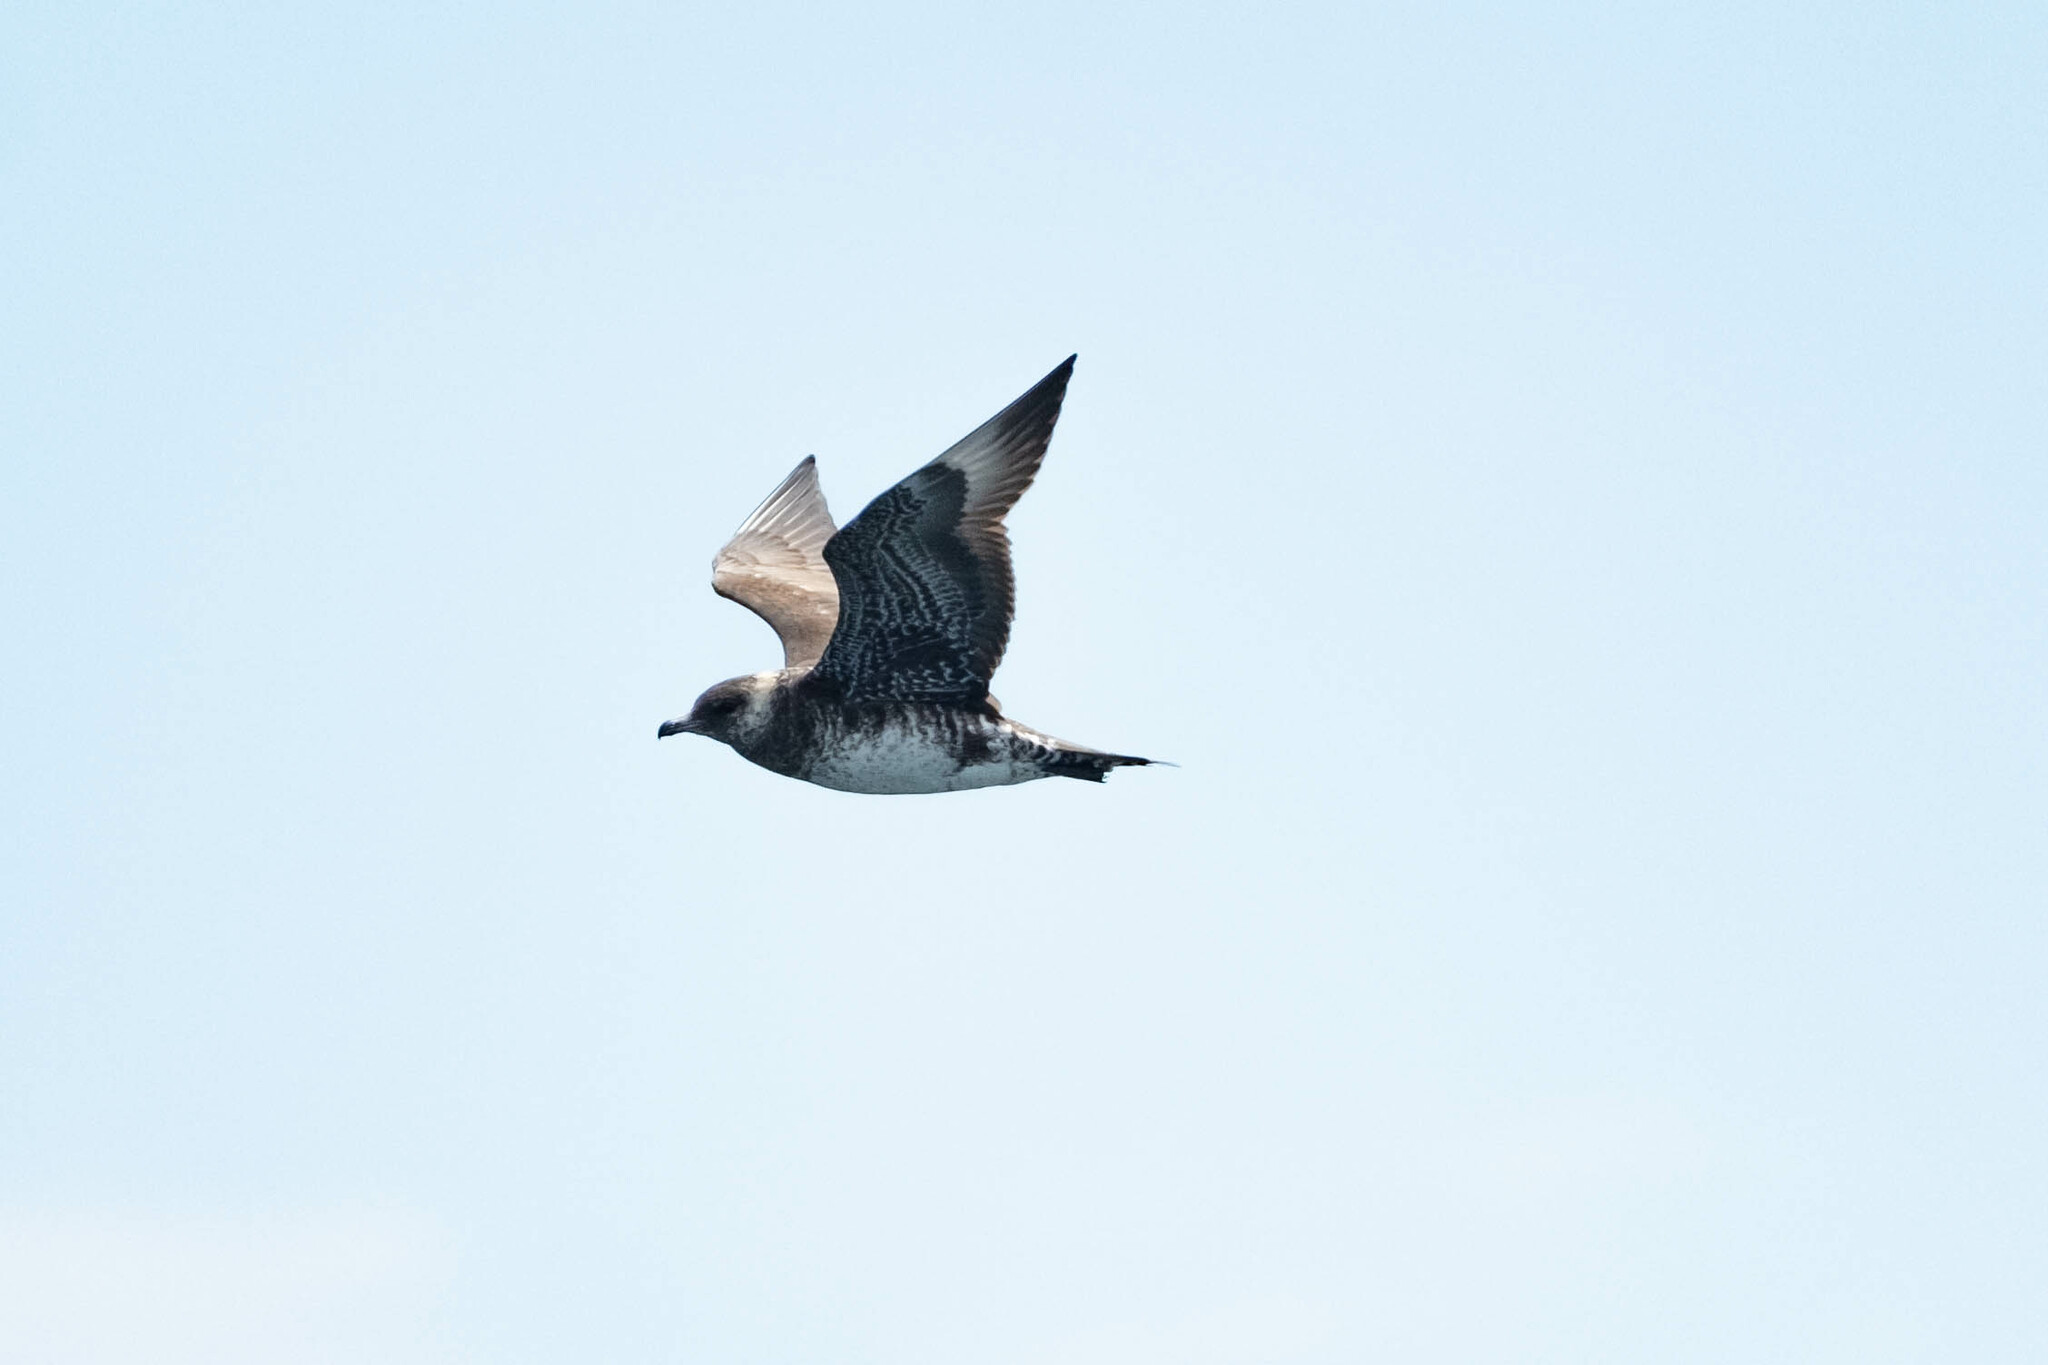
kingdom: Animalia
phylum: Chordata
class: Aves
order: Charadriiformes
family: Stercorariidae
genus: Stercorarius
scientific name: Stercorarius pomarinus
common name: Pomarine jaeger
